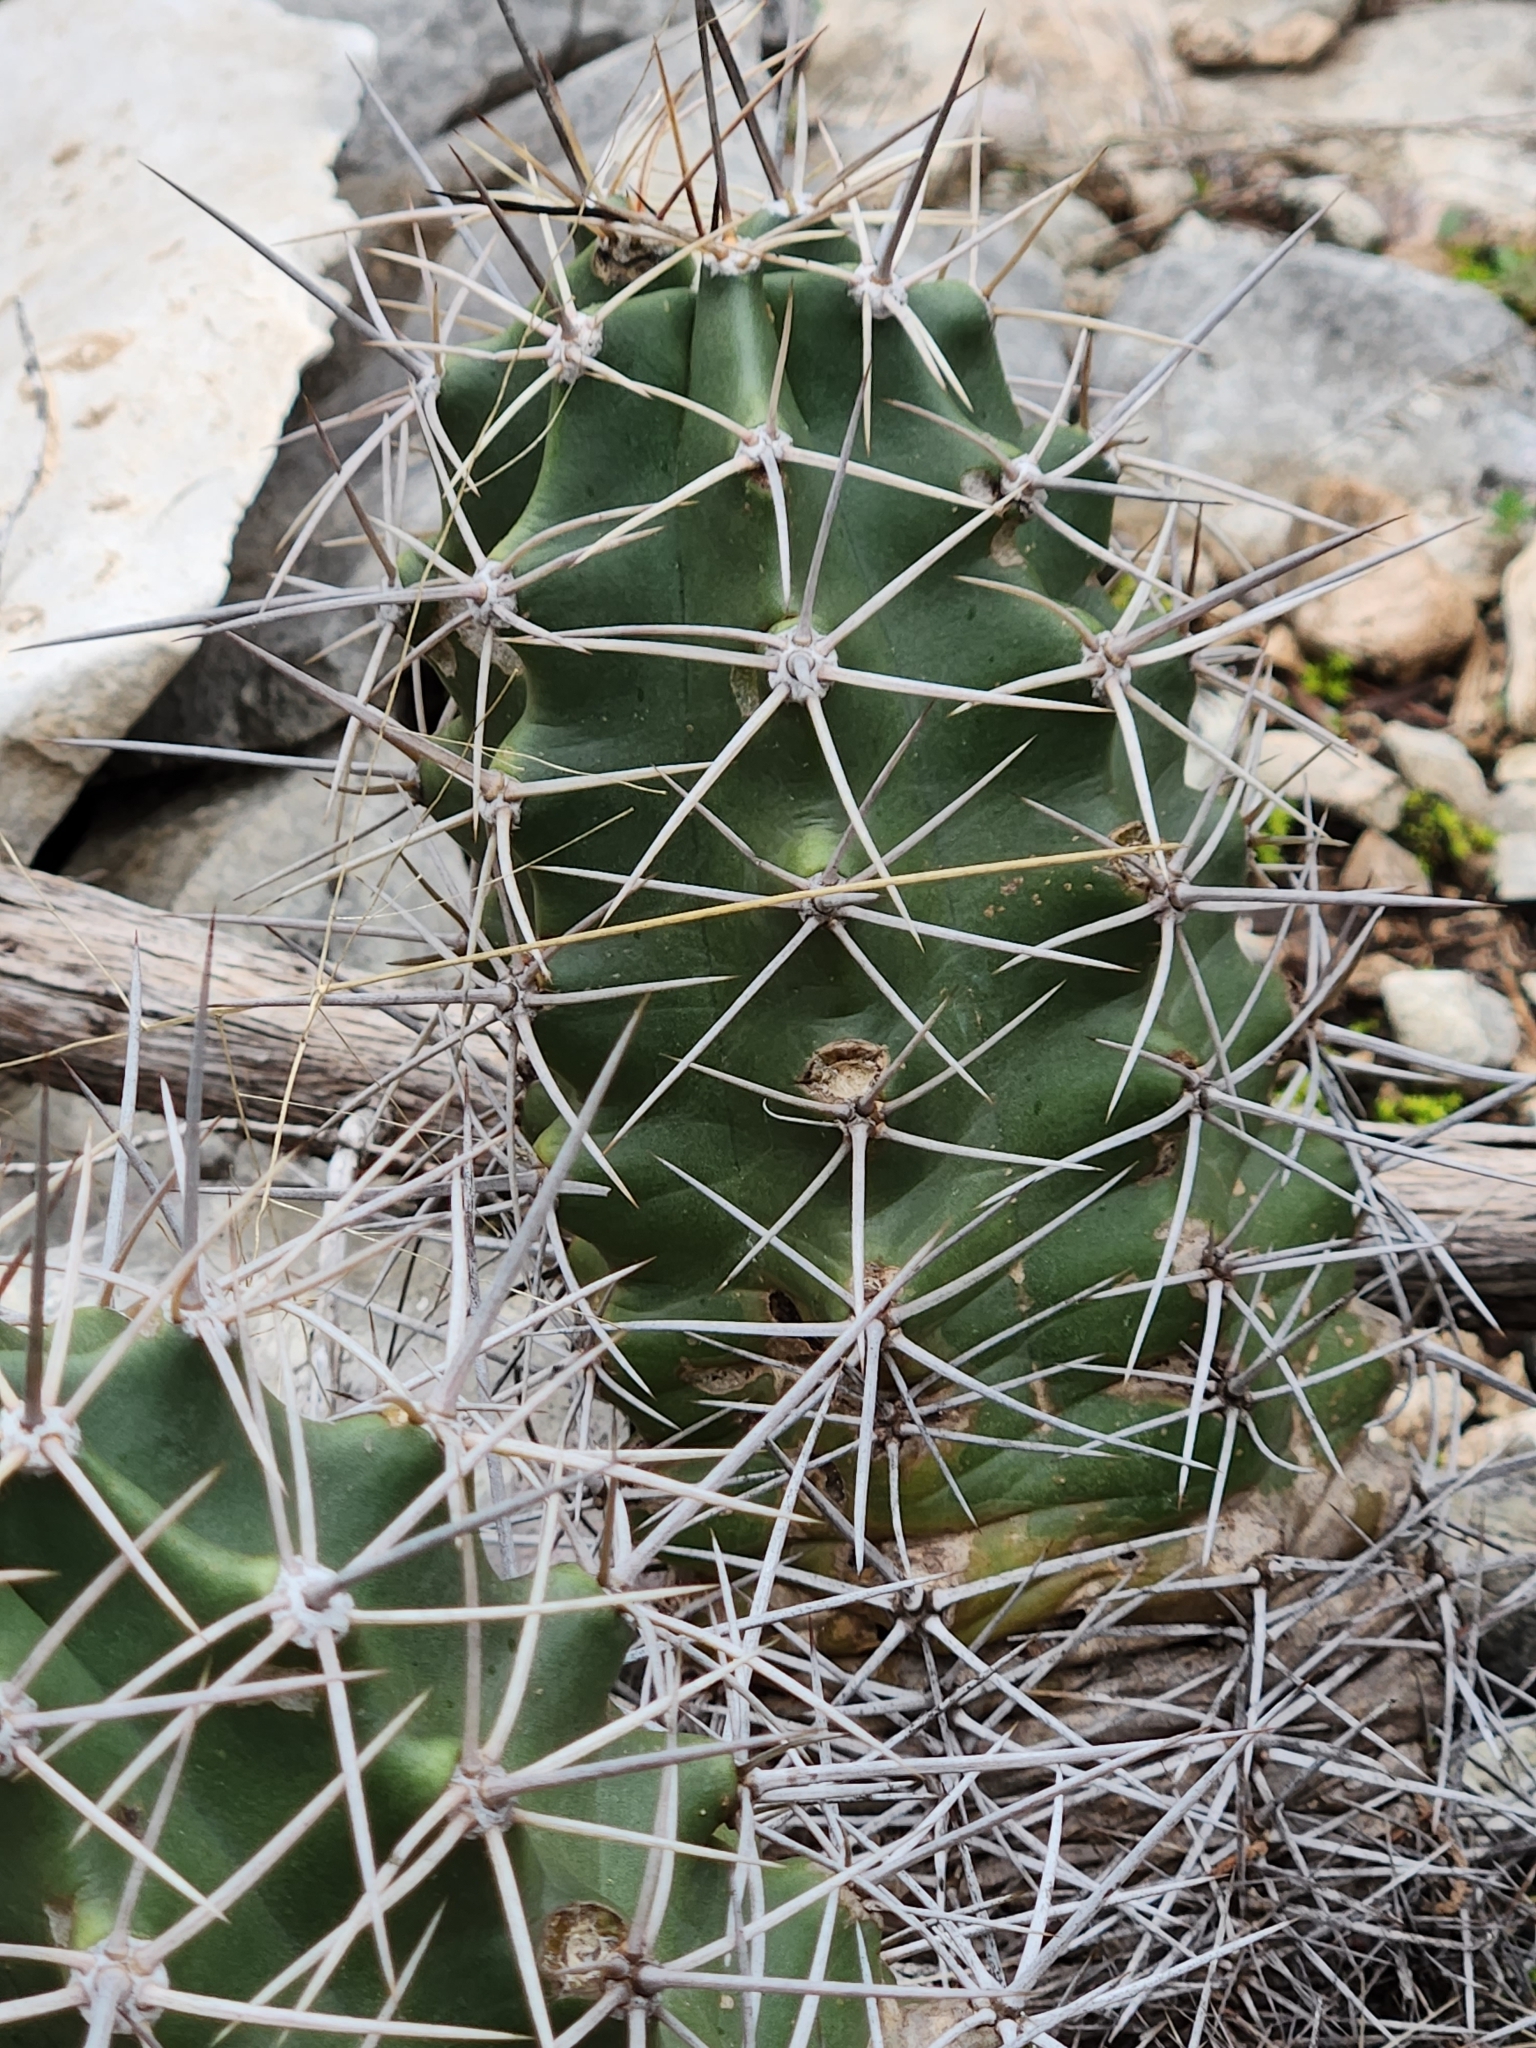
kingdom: Plantae
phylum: Tracheophyta
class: Magnoliopsida
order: Caryophyllales
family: Cactaceae
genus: Echinocereus
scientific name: Echinocereus coccineus
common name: Scarlet hedgehog cactus
